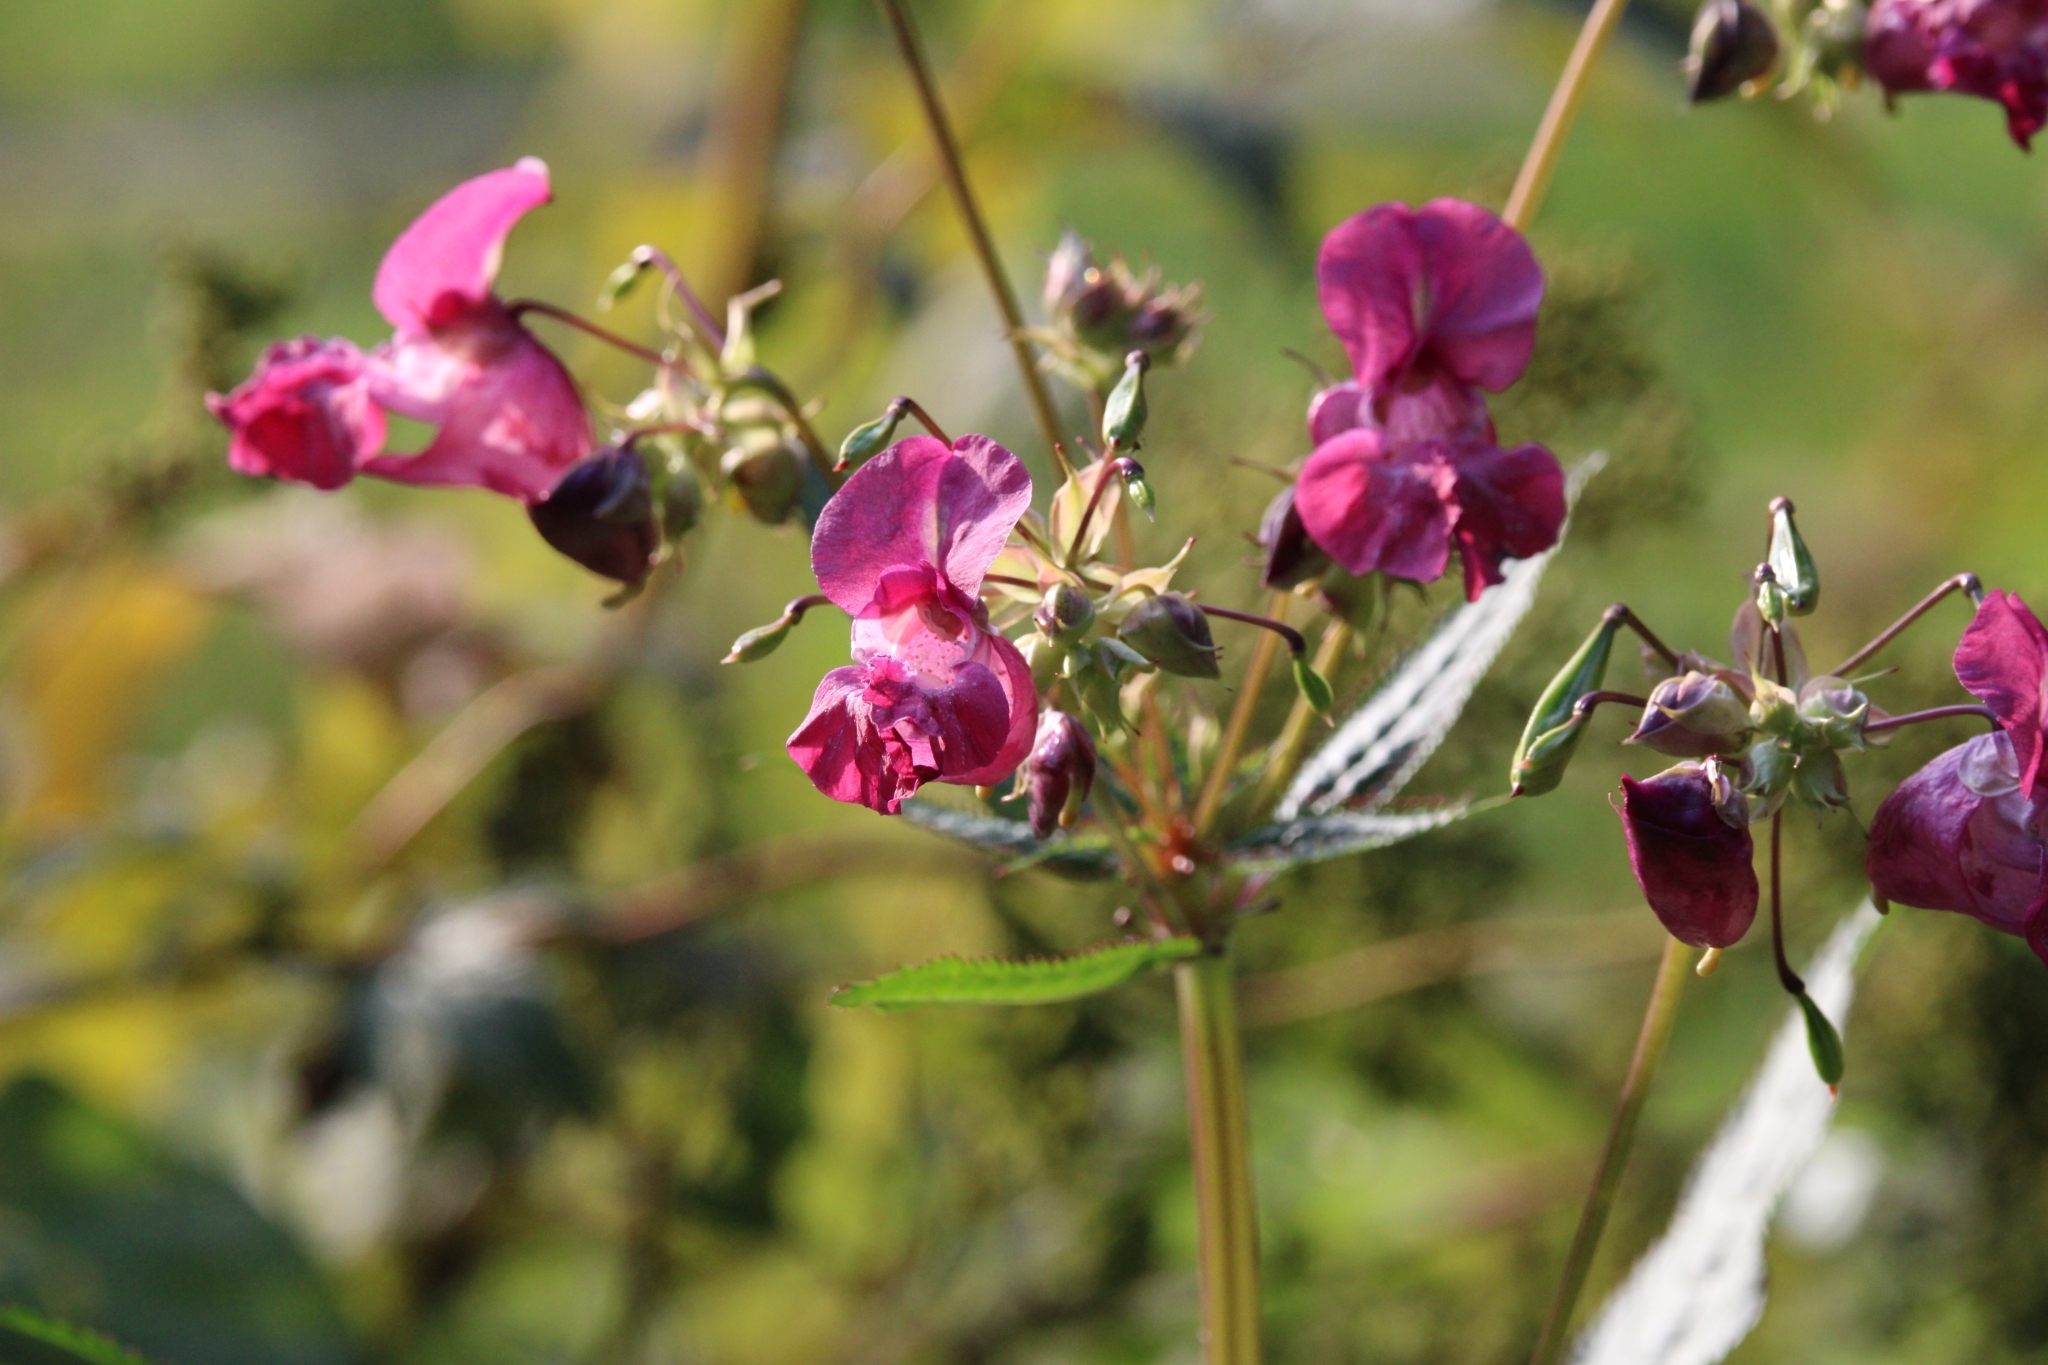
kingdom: Plantae
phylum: Tracheophyta
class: Magnoliopsida
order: Ericales
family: Balsaminaceae
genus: Impatiens
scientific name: Impatiens glandulifera
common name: Himalayan balsam
